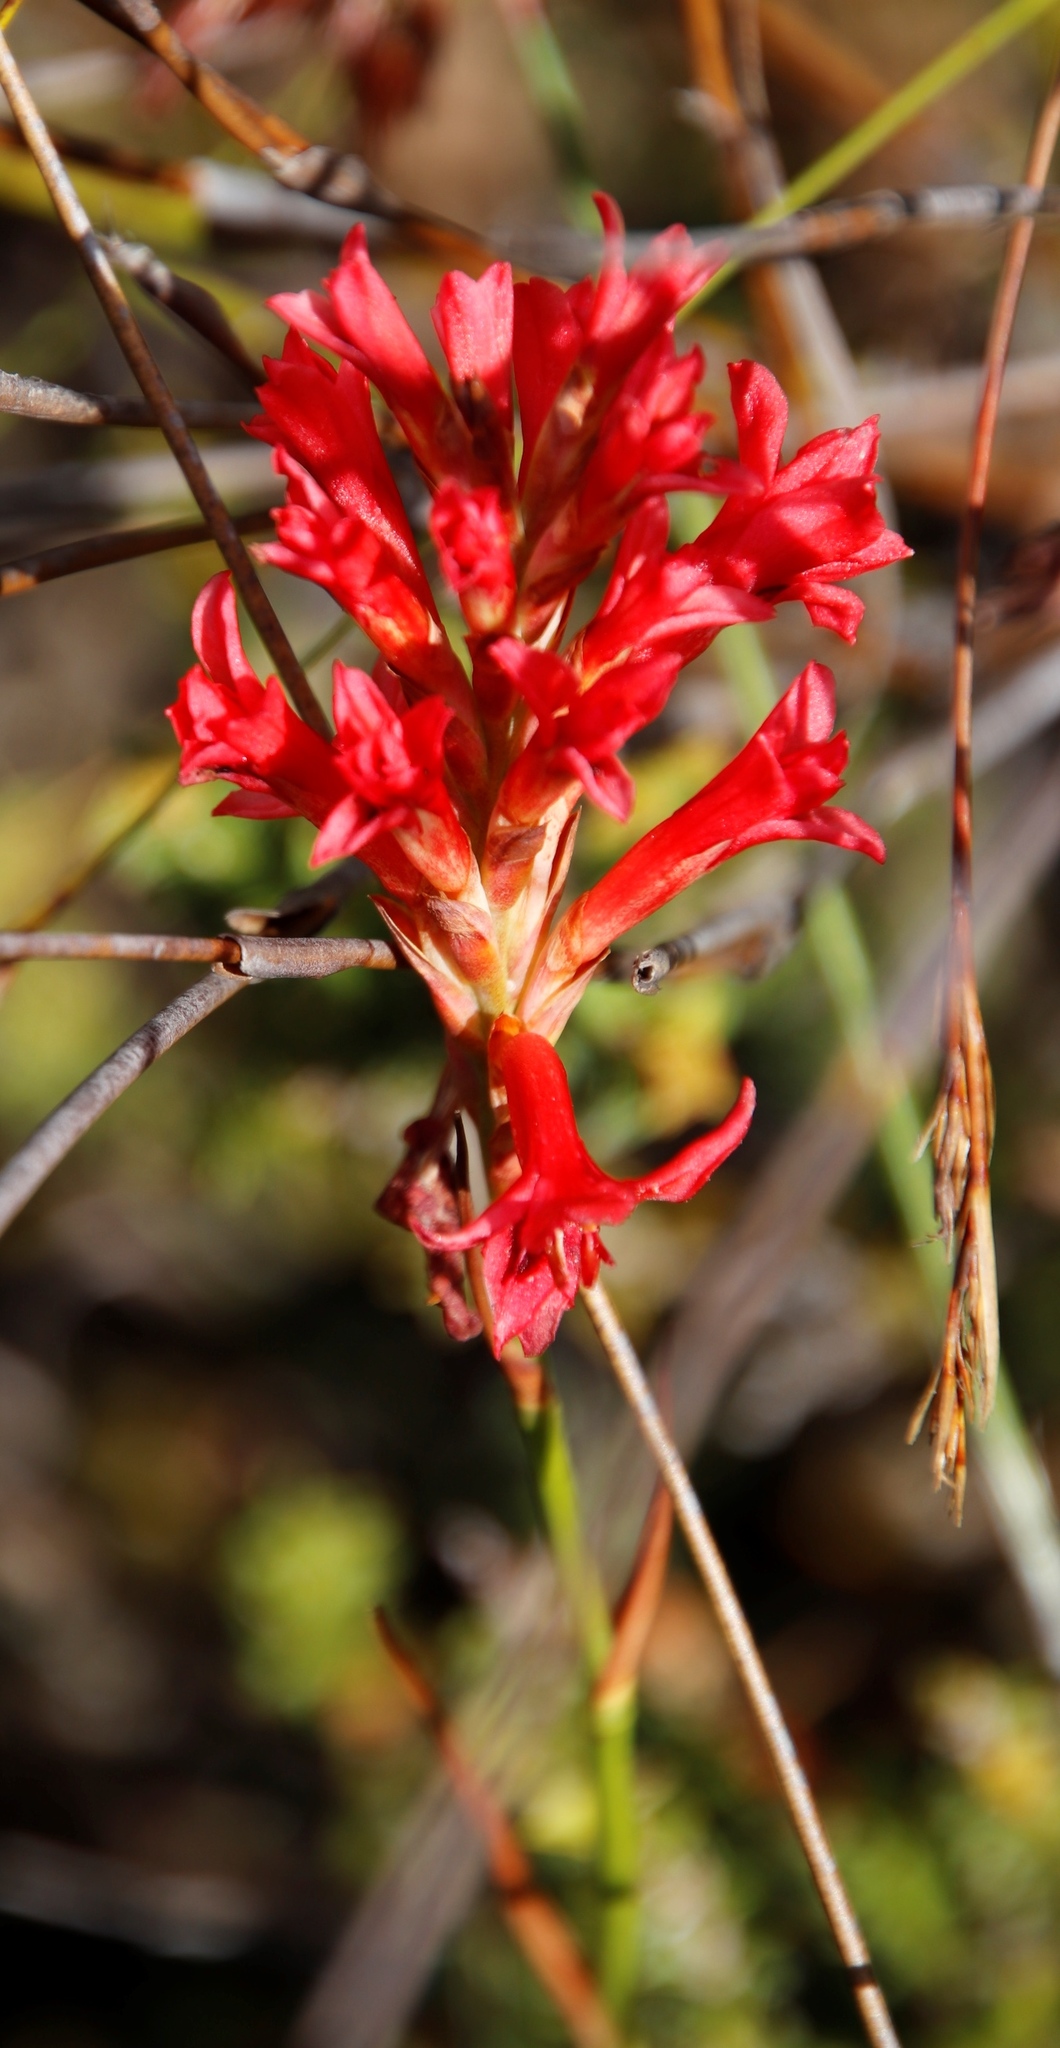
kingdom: Plantae
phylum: Tracheophyta
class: Liliopsida
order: Asparagales
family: Iridaceae
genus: Tritoniopsis
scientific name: Tritoniopsis triticea
